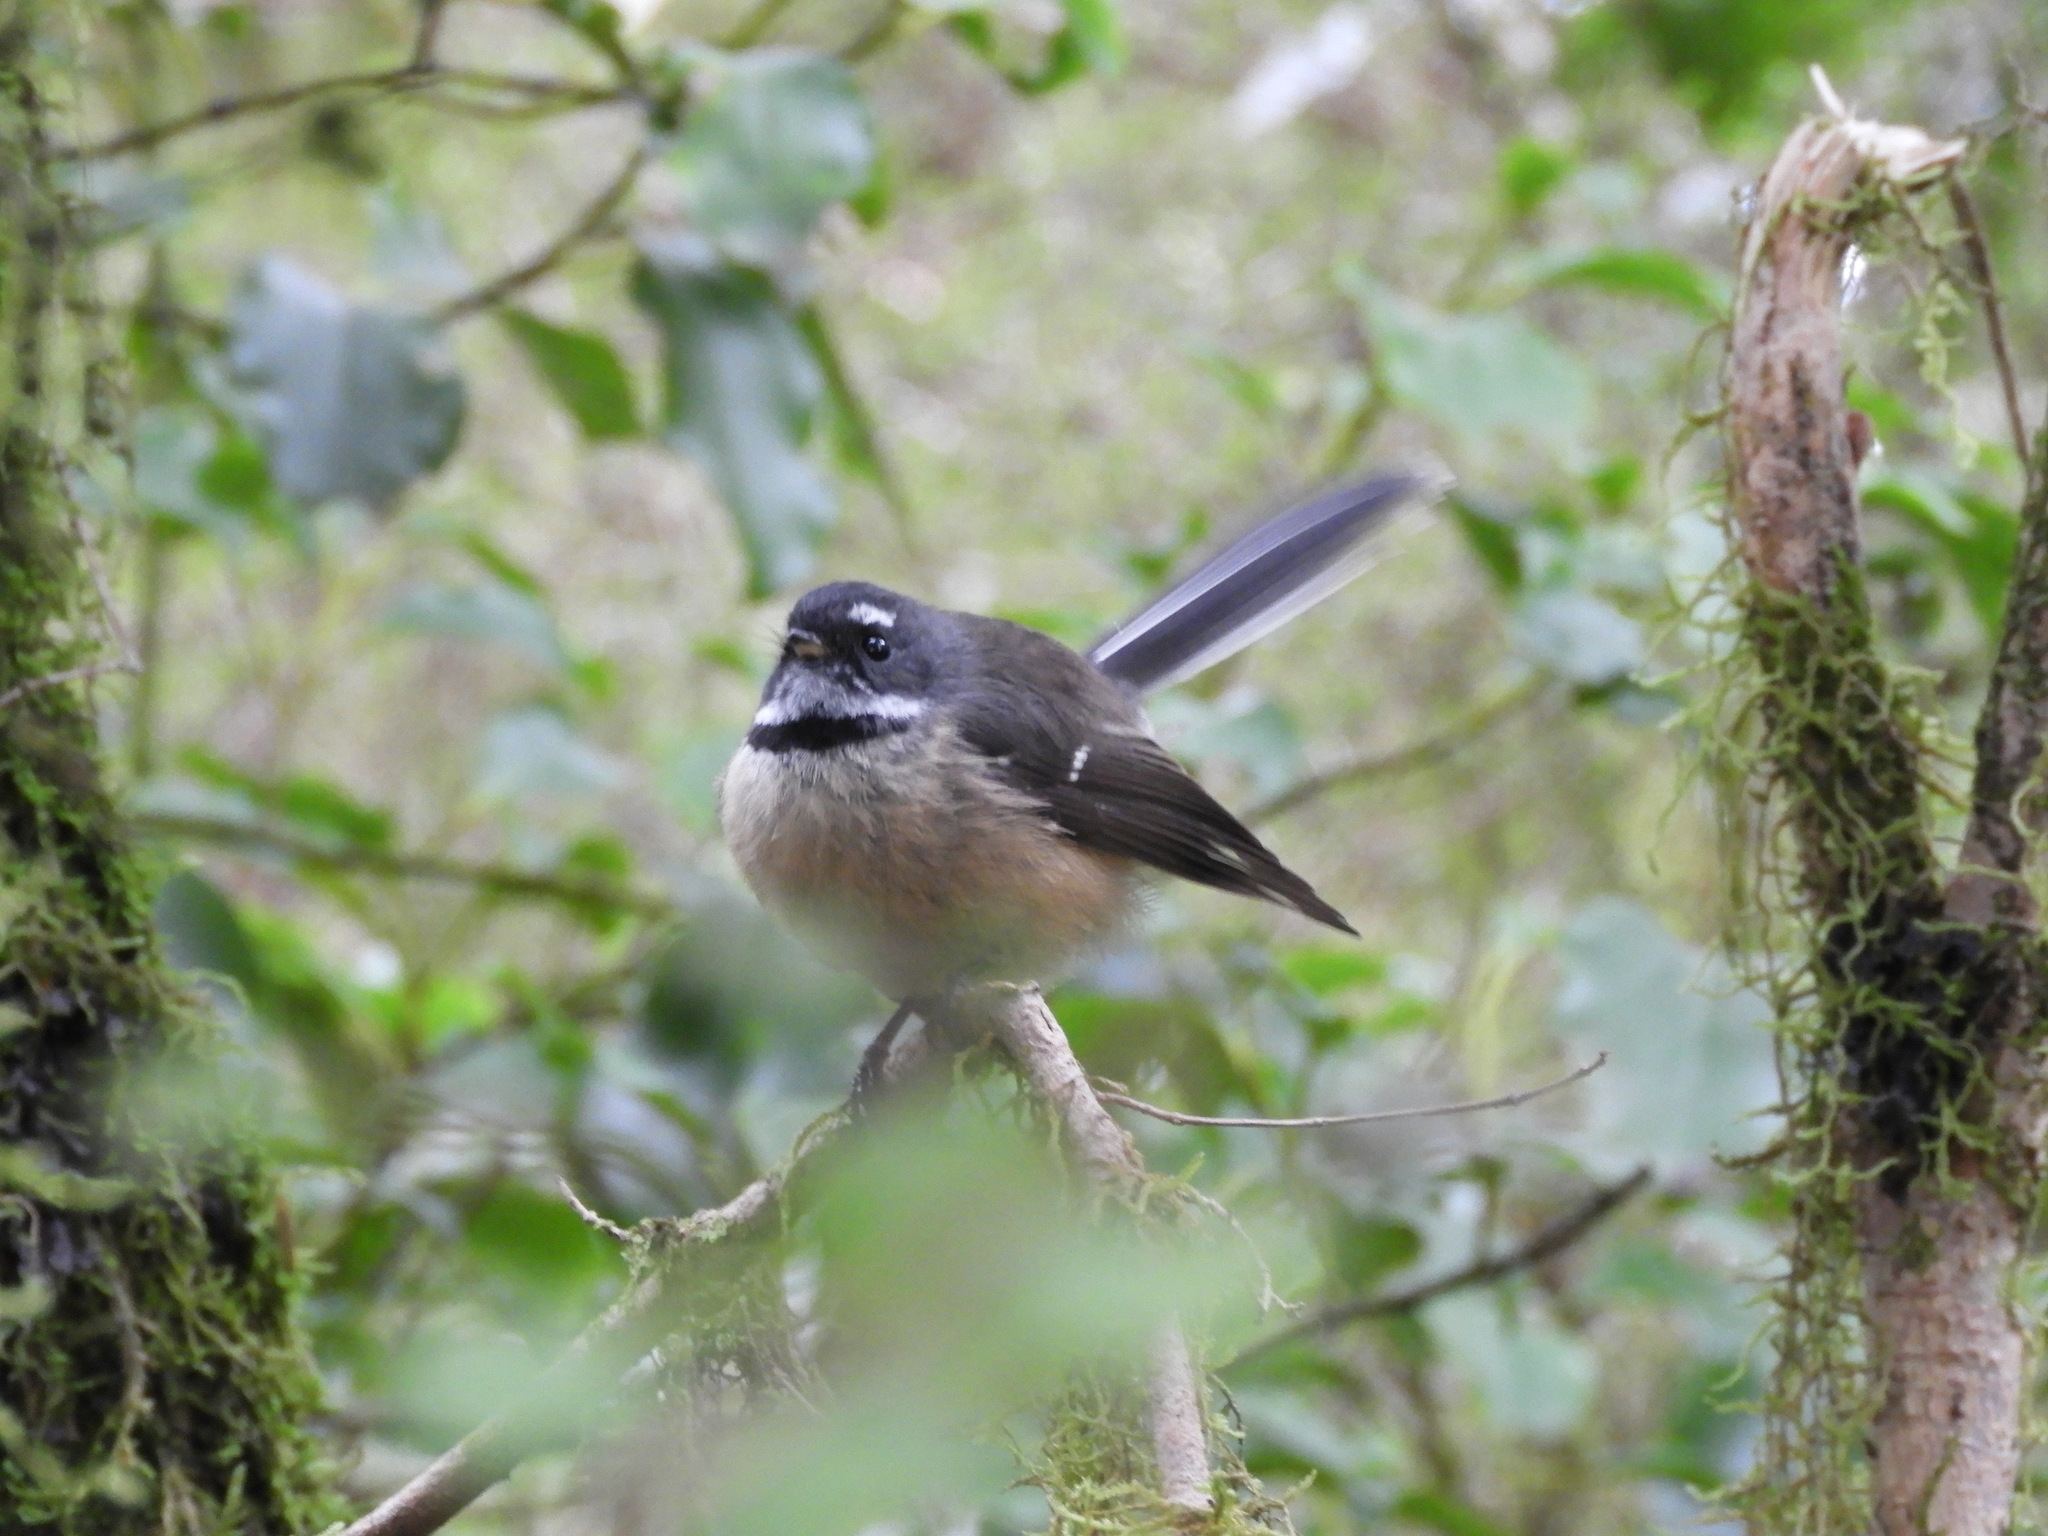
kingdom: Animalia
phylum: Chordata
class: Aves
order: Passeriformes
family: Rhipiduridae
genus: Rhipidura
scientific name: Rhipidura fuliginosa
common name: New zealand fantail
